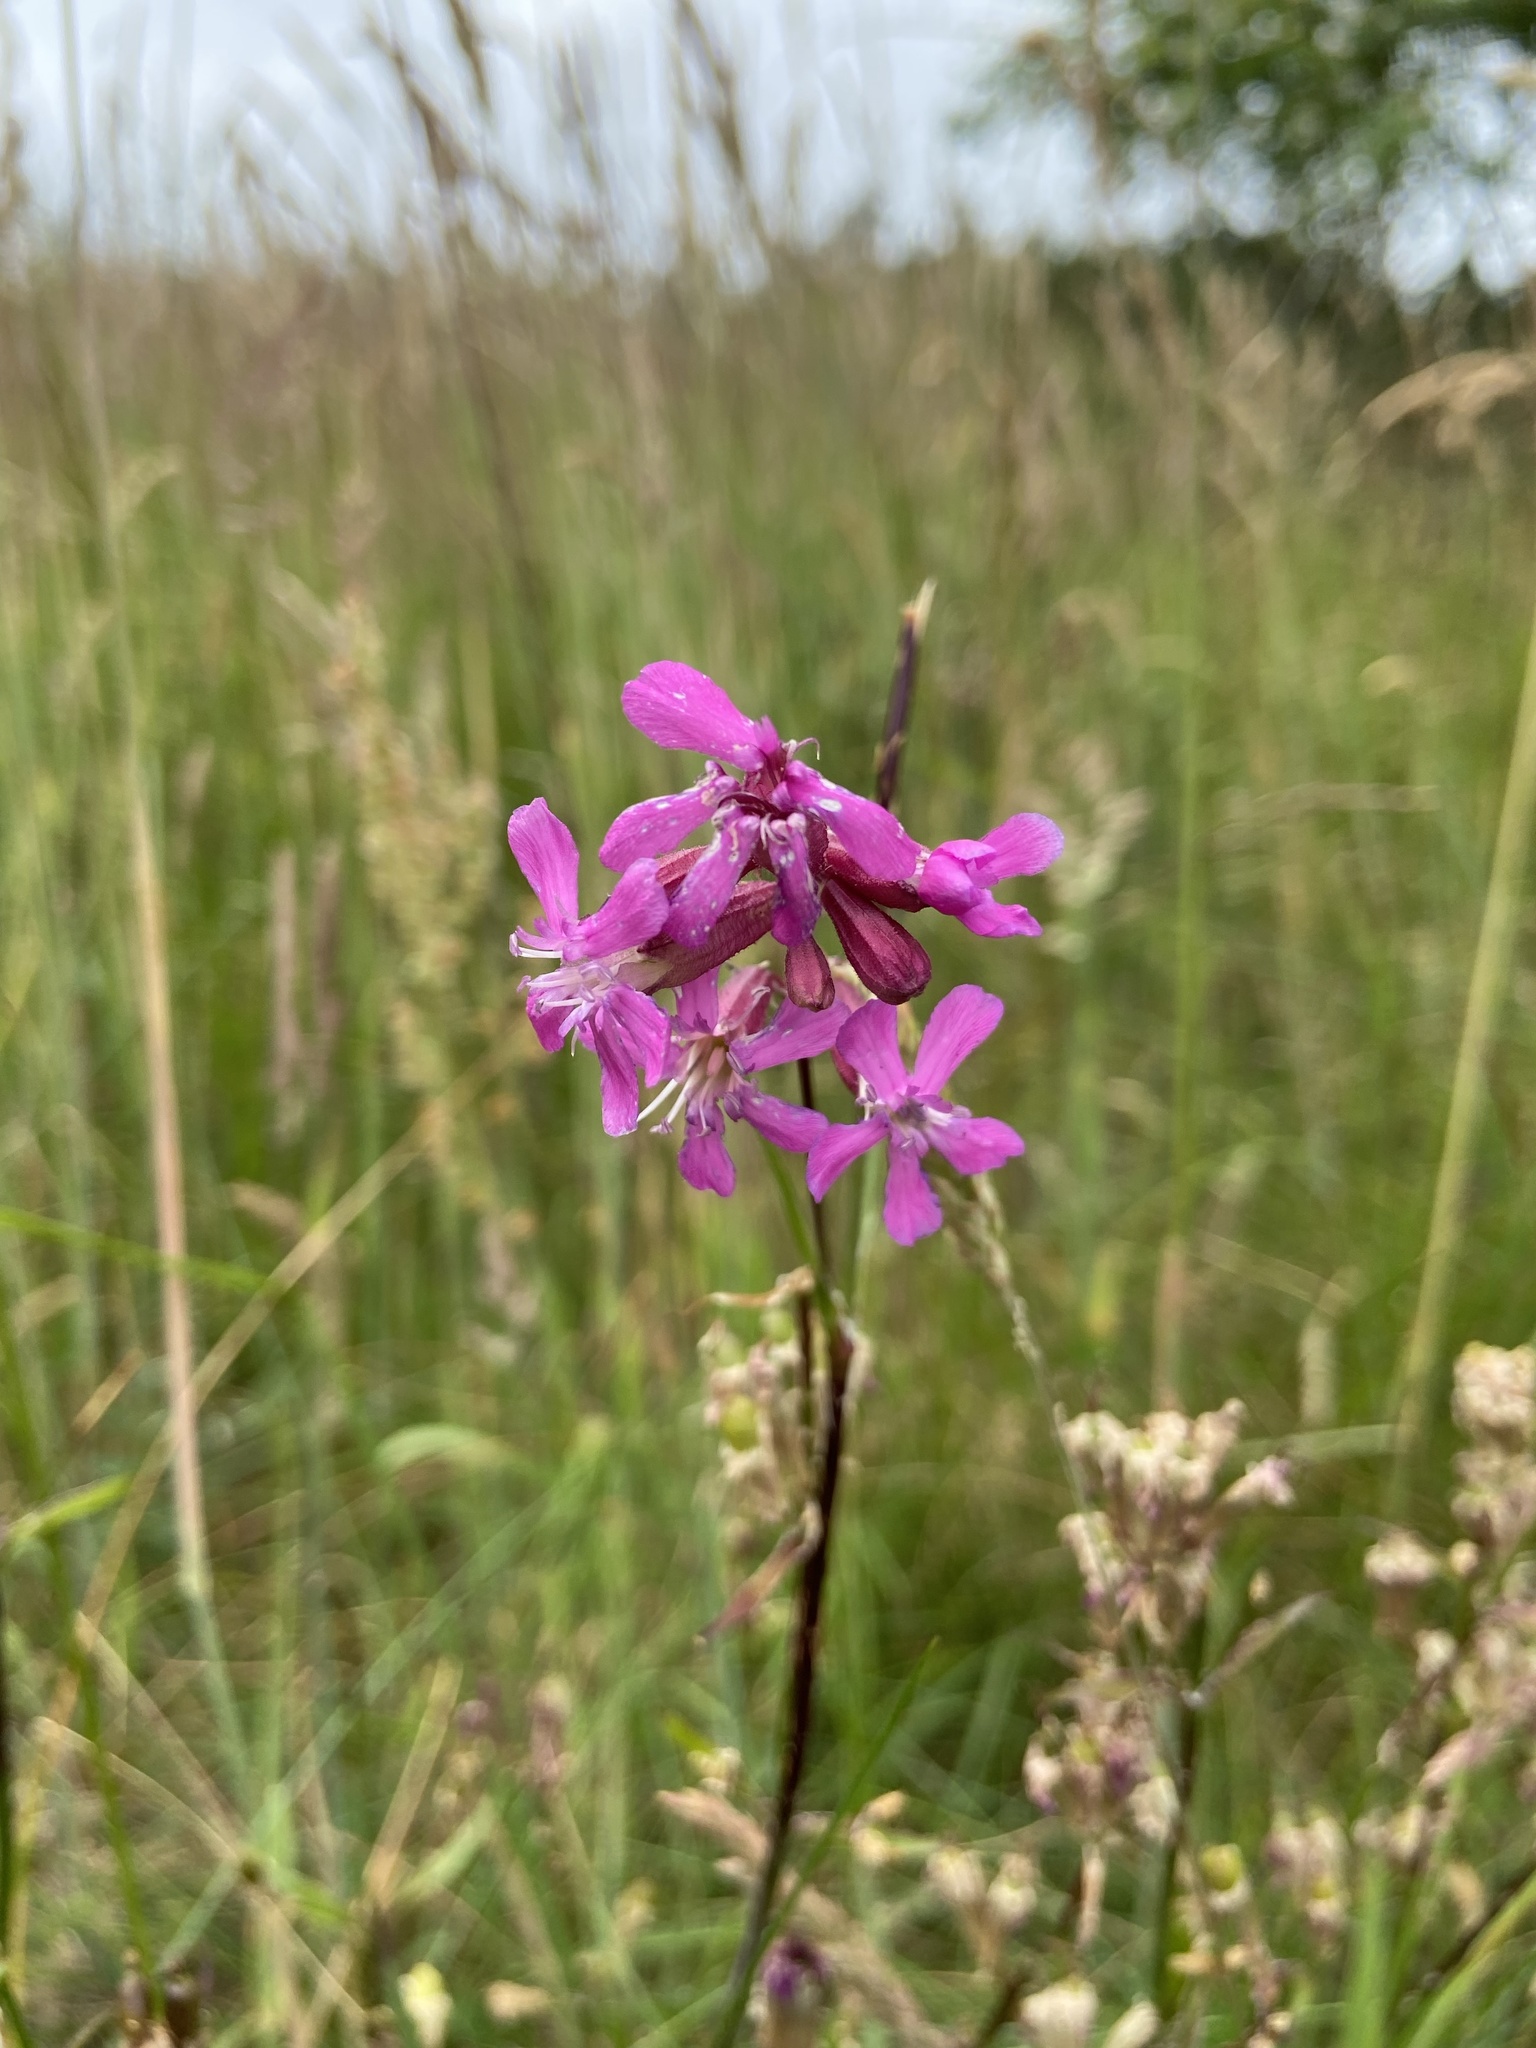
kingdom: Plantae
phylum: Tracheophyta
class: Magnoliopsida
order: Caryophyllales
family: Caryophyllaceae
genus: Viscaria
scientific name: Viscaria vulgaris
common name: Clammy campion
